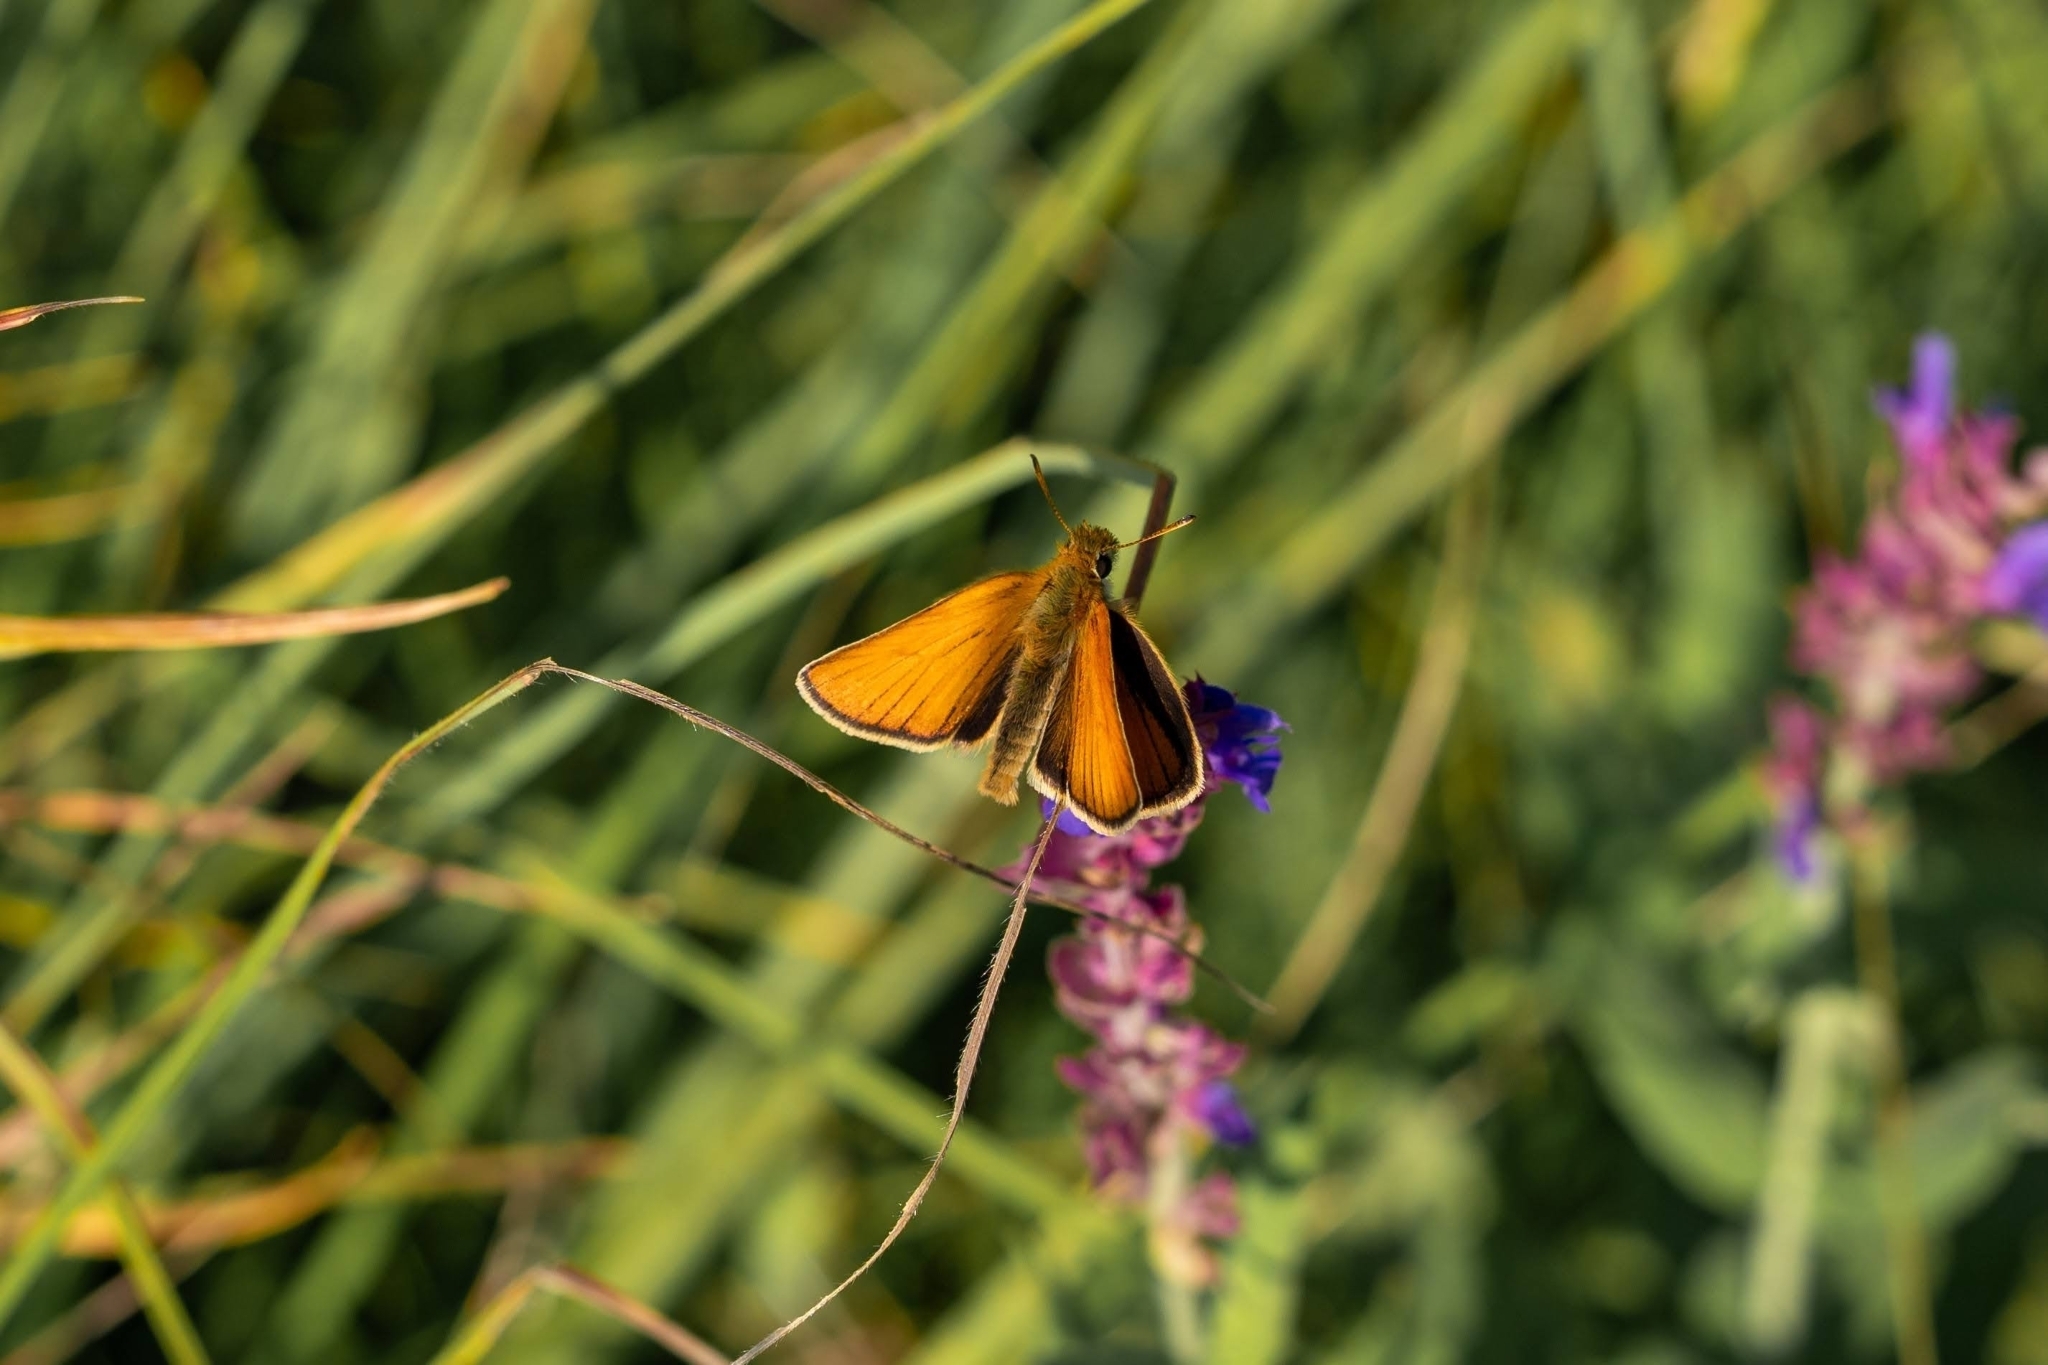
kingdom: Animalia
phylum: Arthropoda
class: Insecta
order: Lepidoptera
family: Hesperiidae
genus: Thymelicus
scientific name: Thymelicus lineola
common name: Essex skipper
